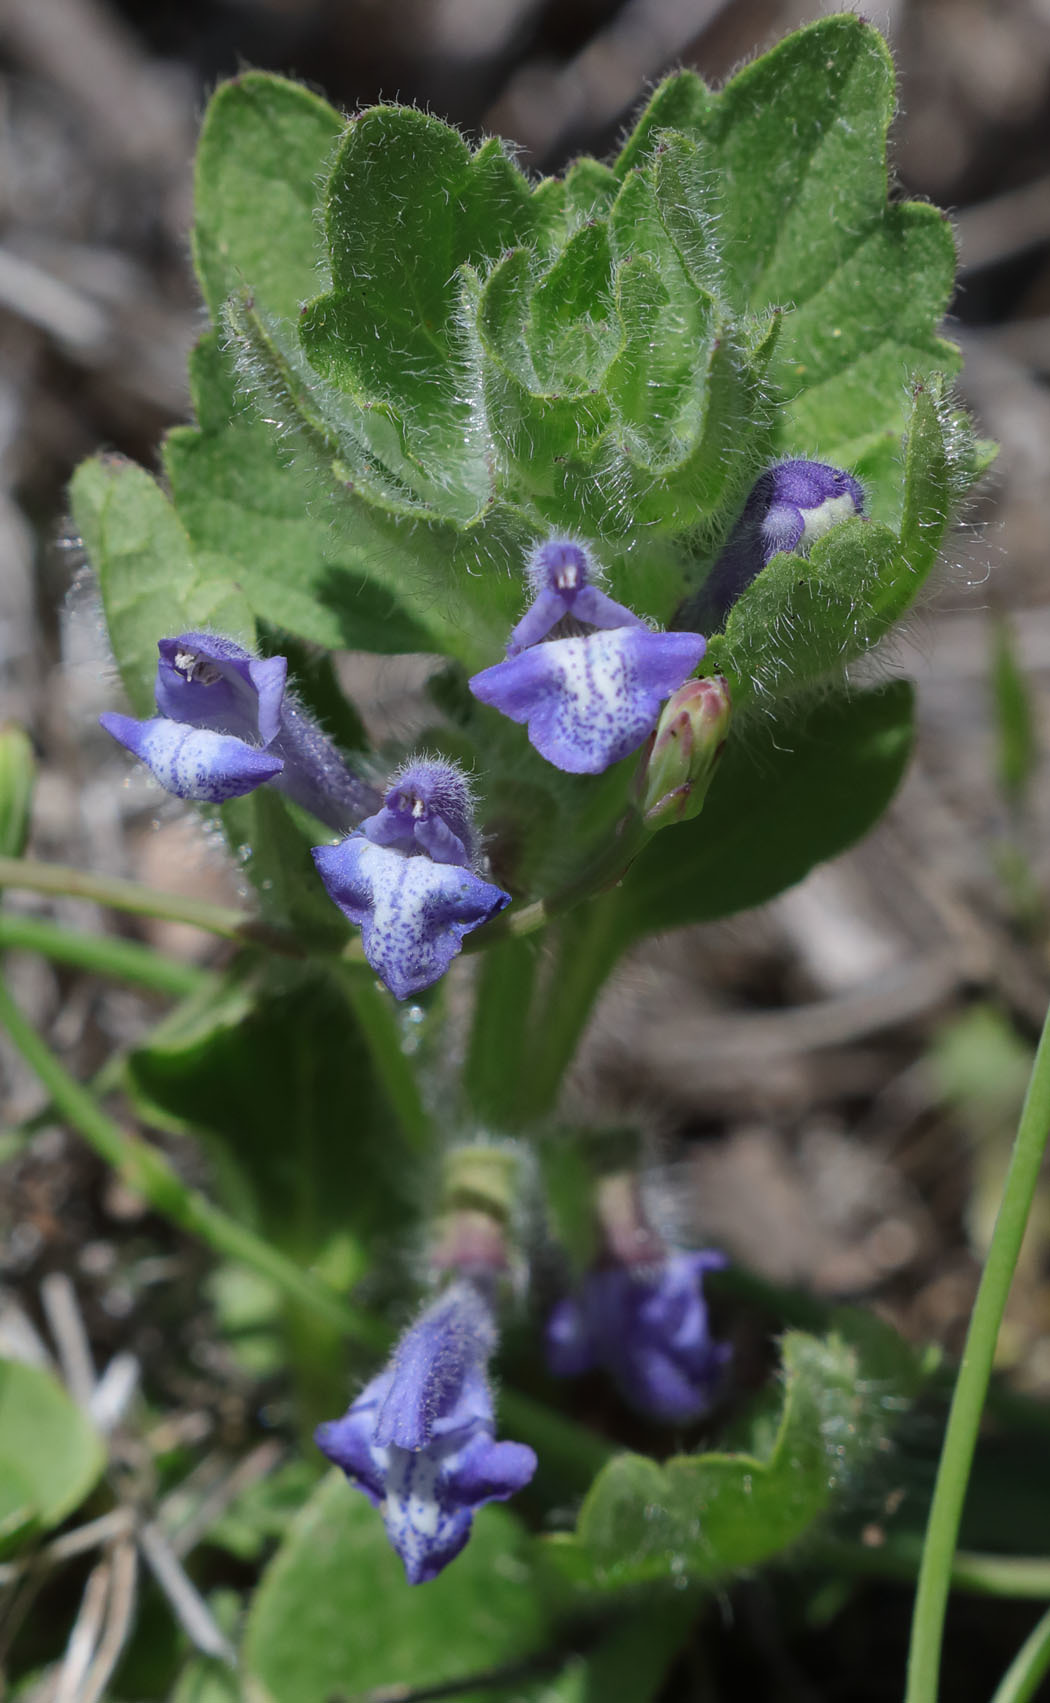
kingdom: Plantae
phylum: Tracheophyta
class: Magnoliopsida
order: Lamiales
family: Lamiaceae
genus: Scutellaria
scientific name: Scutellaria tuberosa
